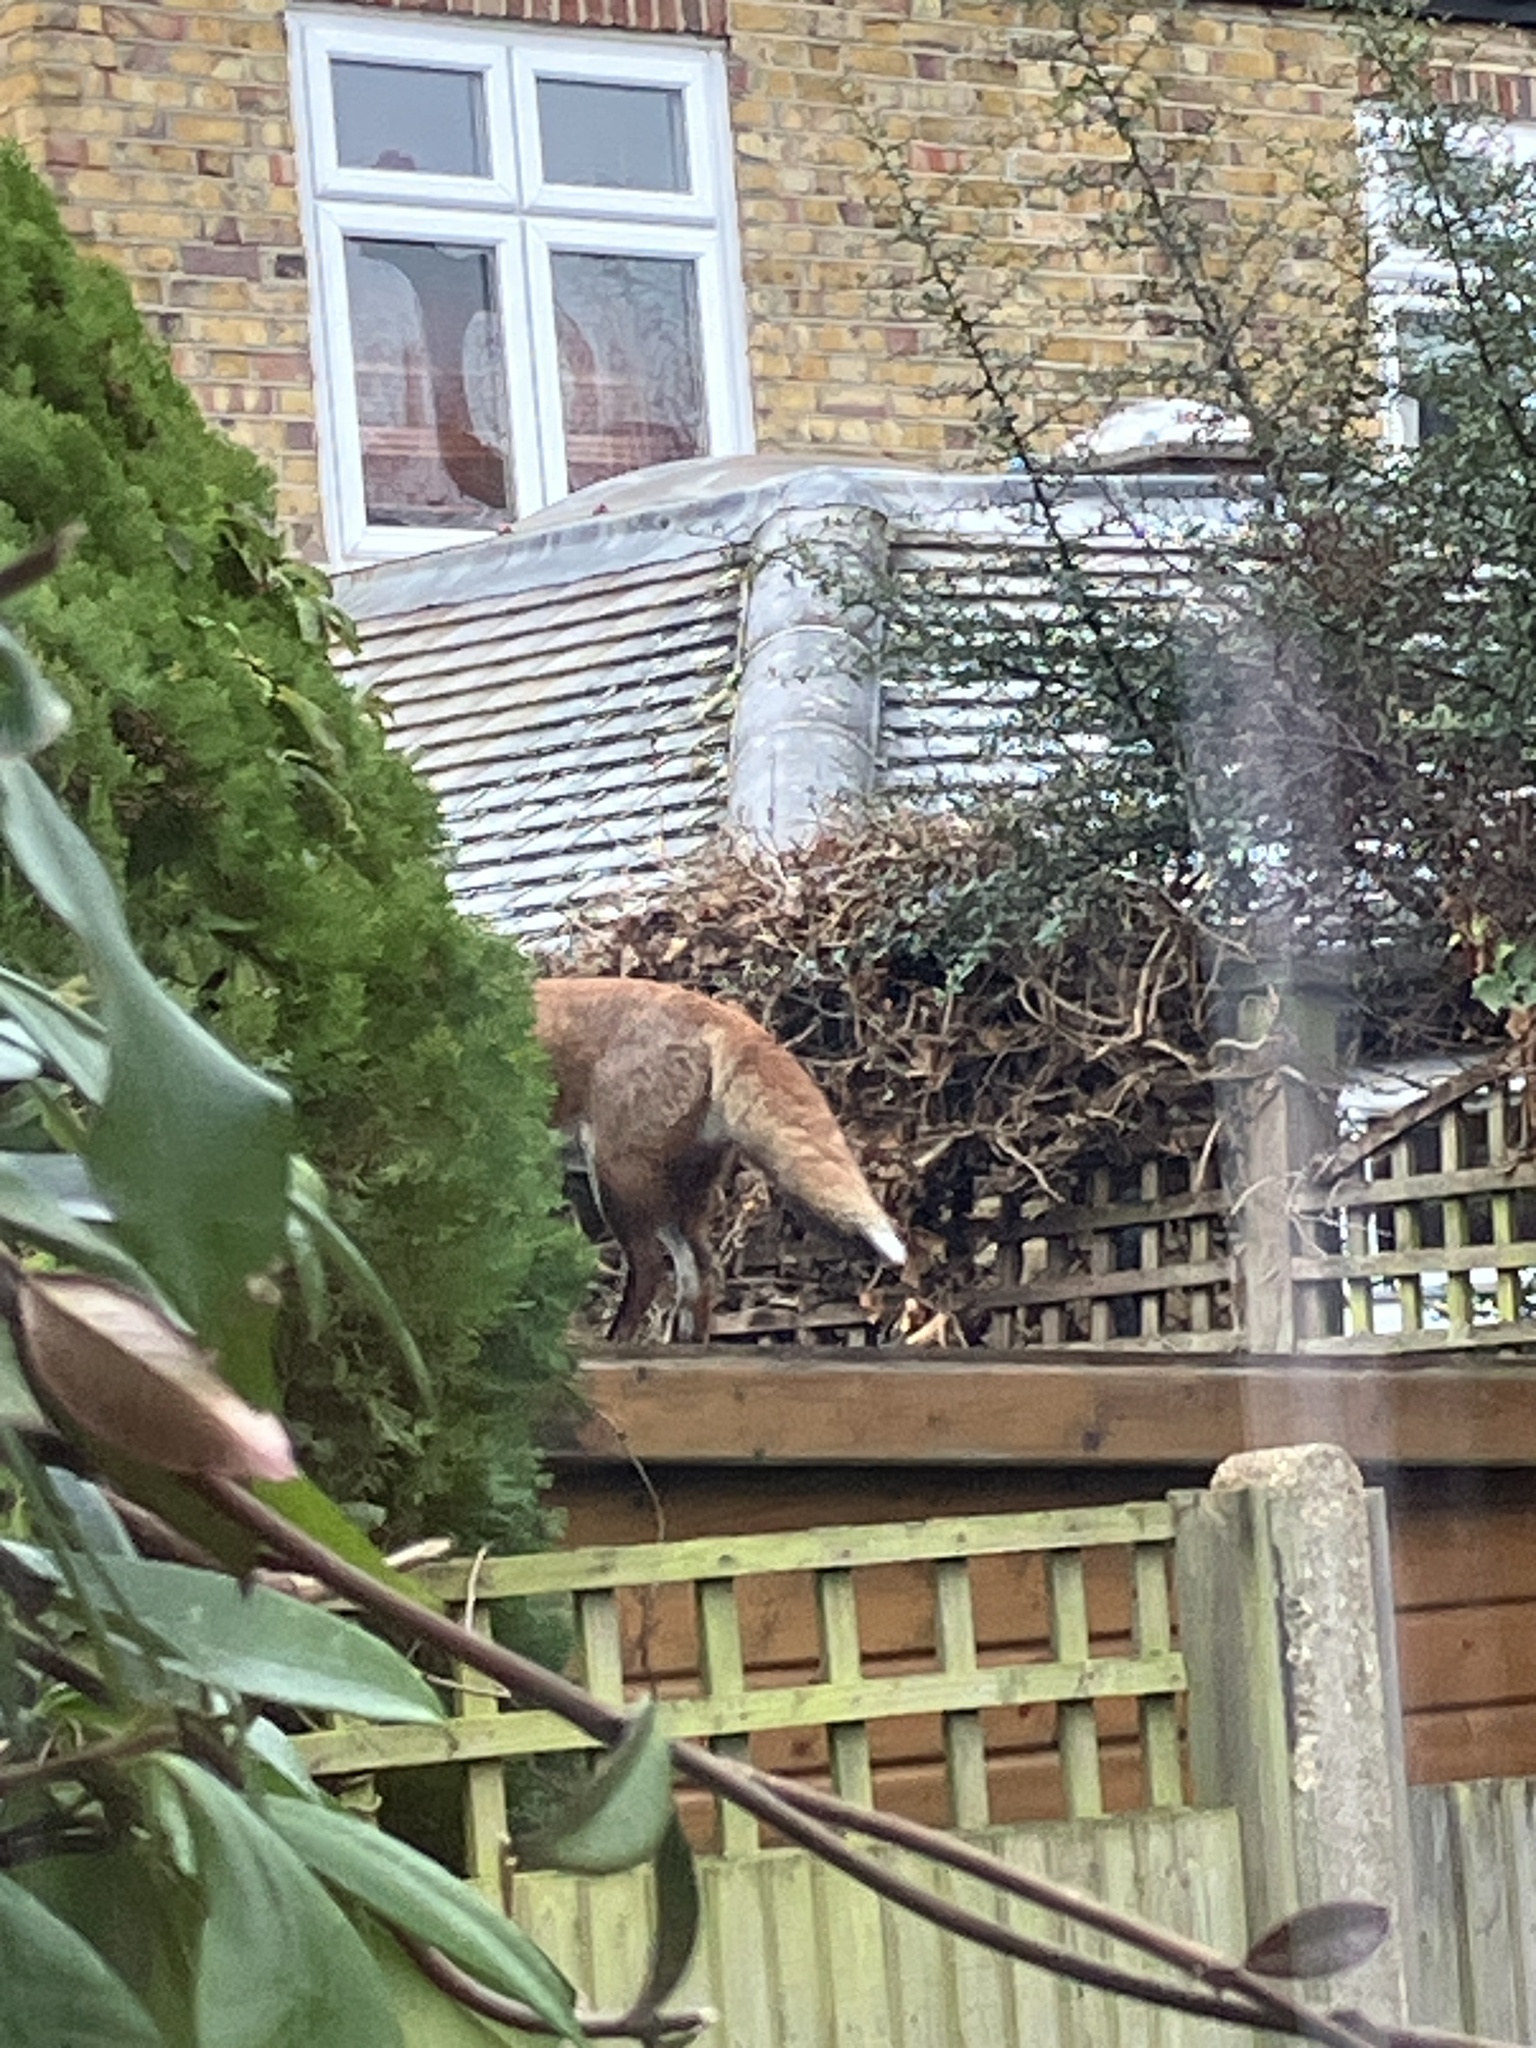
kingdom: Animalia
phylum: Chordata
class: Mammalia
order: Carnivora
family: Canidae
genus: Vulpes
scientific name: Vulpes vulpes
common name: Red fox
